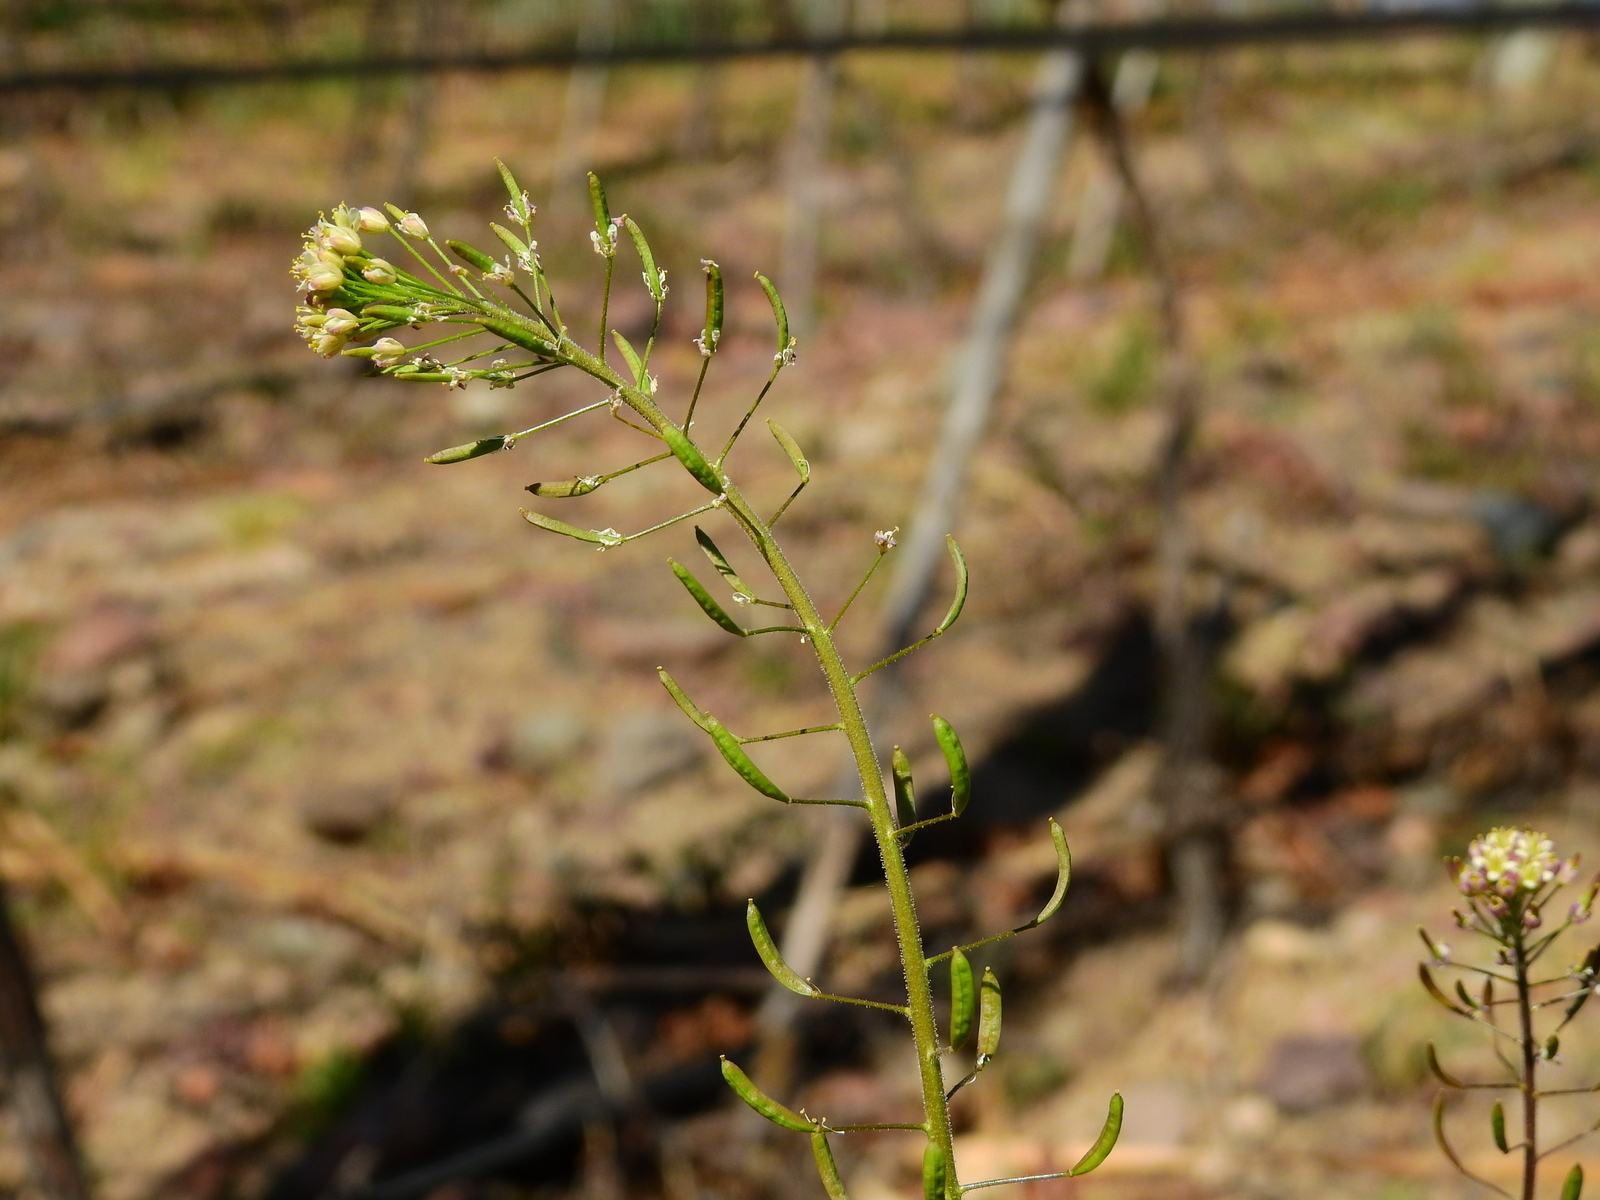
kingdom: Plantae
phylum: Tracheophyta
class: Magnoliopsida
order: Brassicales
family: Brassicaceae
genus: Descurainia
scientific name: Descurainia erodiifolia
